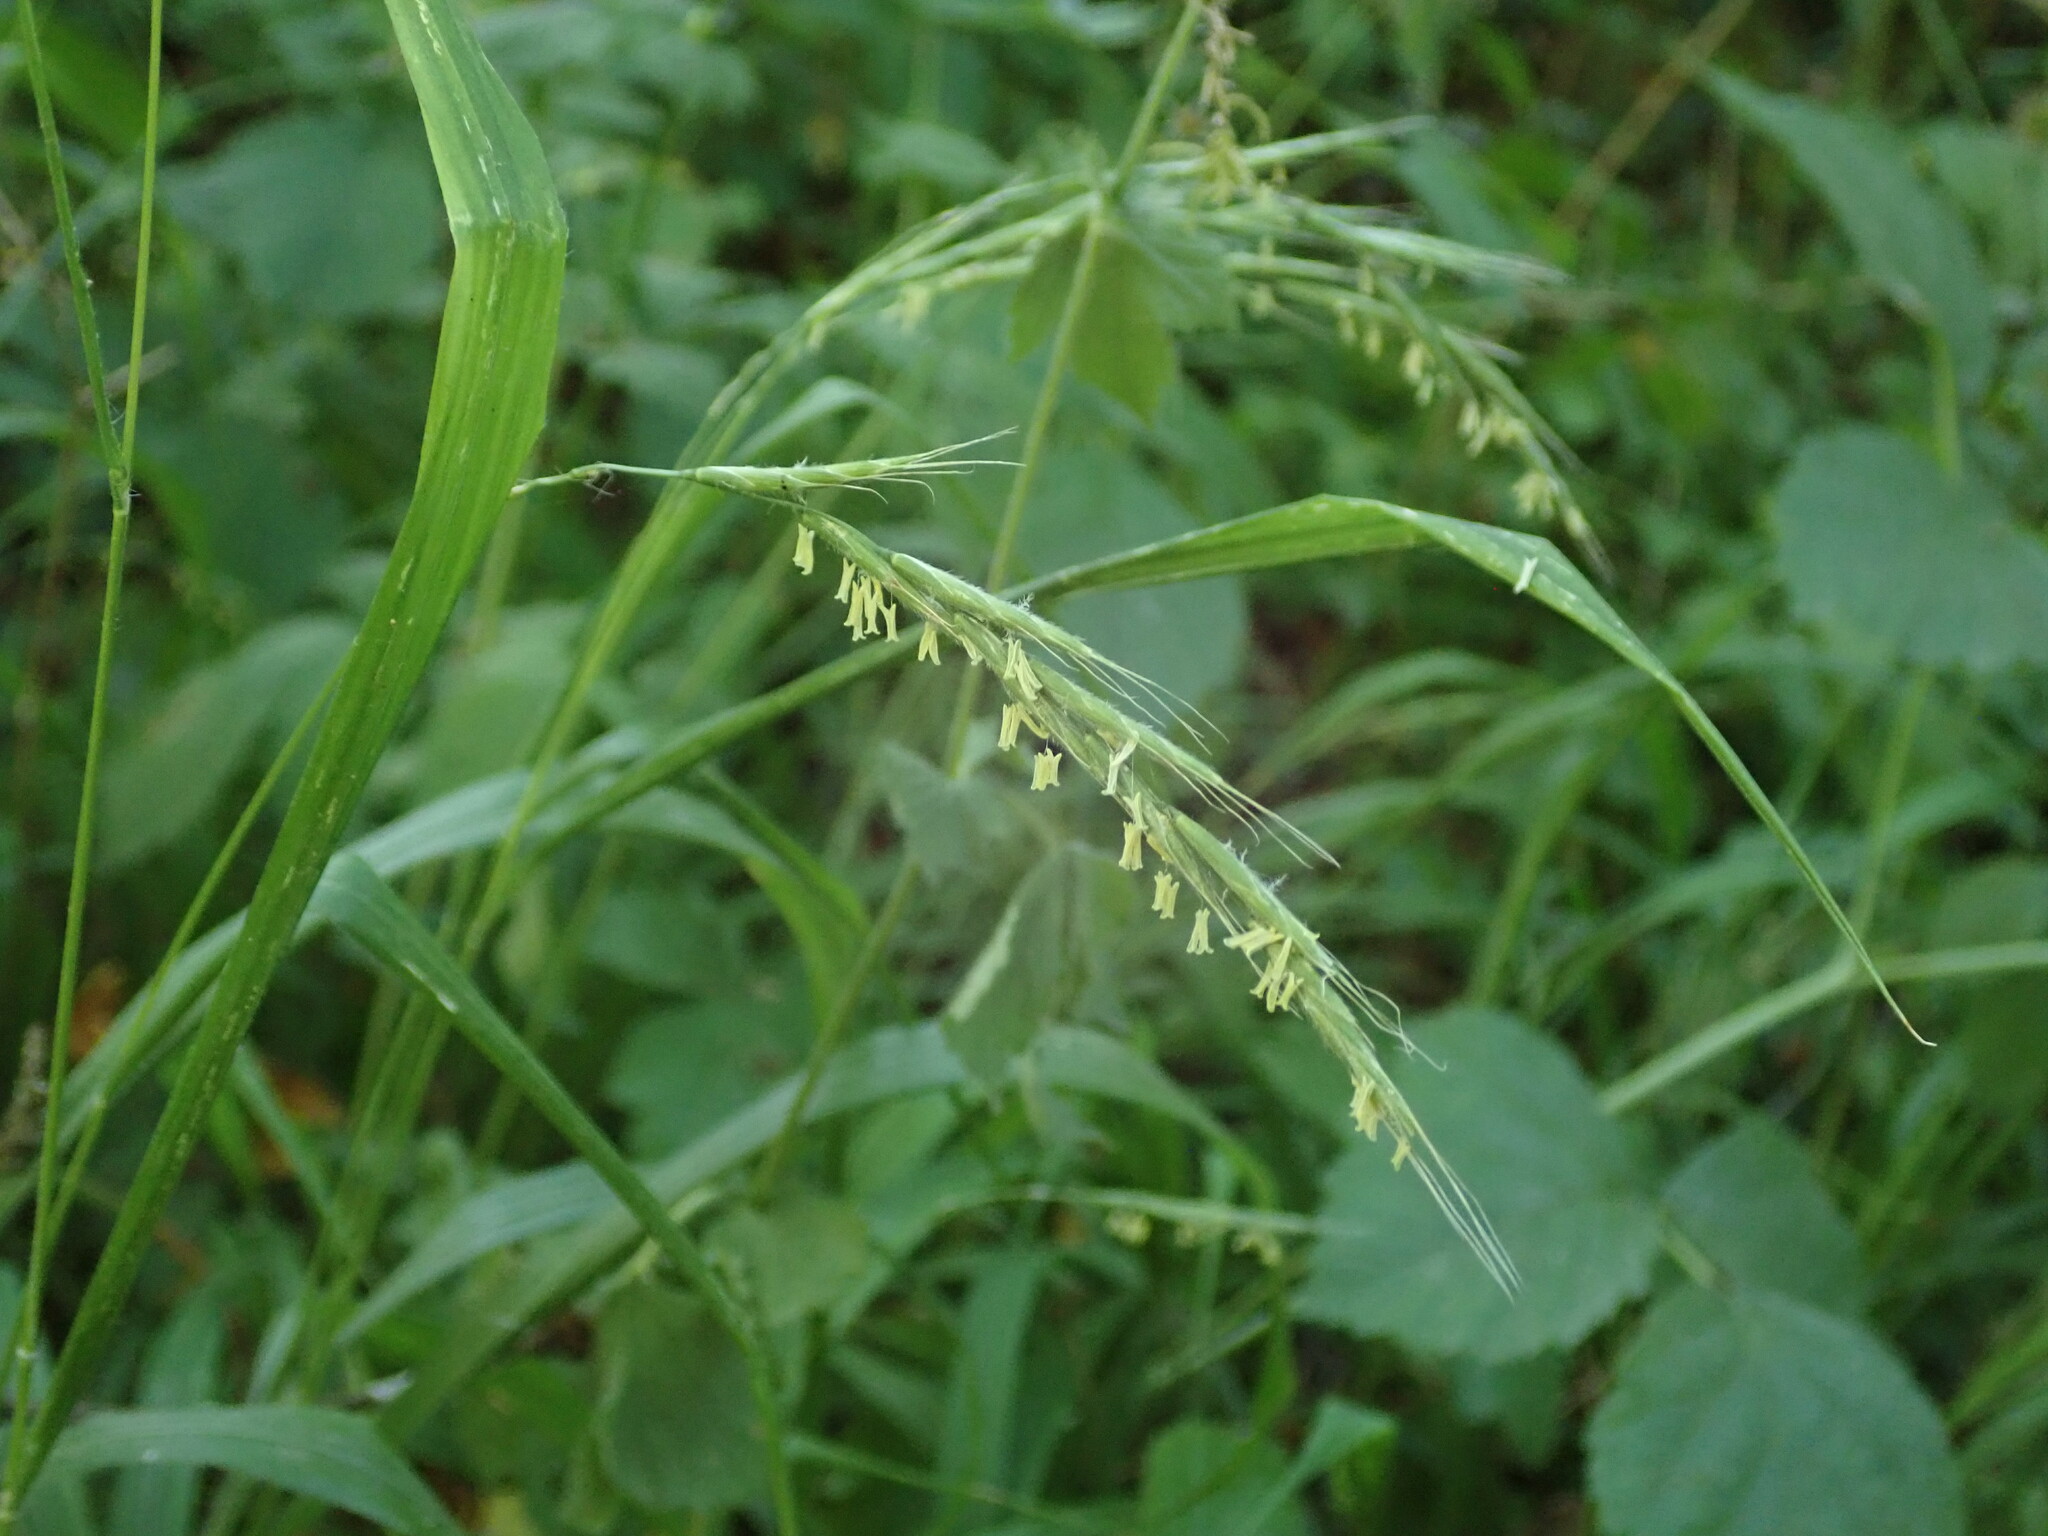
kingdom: Plantae
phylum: Tracheophyta
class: Liliopsida
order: Poales
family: Poaceae
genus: Brachypodium
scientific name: Brachypodium sylvaticum
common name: False-brome
